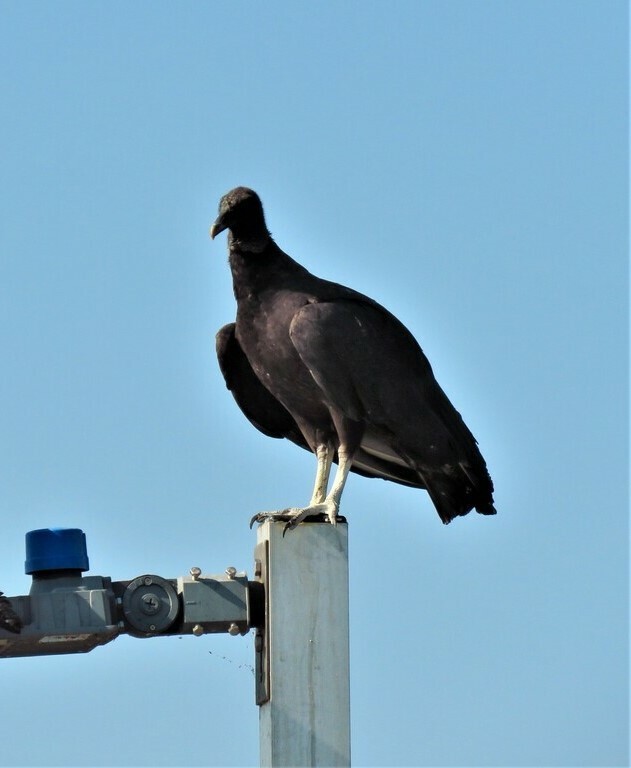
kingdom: Animalia
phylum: Chordata
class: Aves
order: Accipitriformes
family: Cathartidae
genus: Coragyps
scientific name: Coragyps atratus
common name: Black vulture
